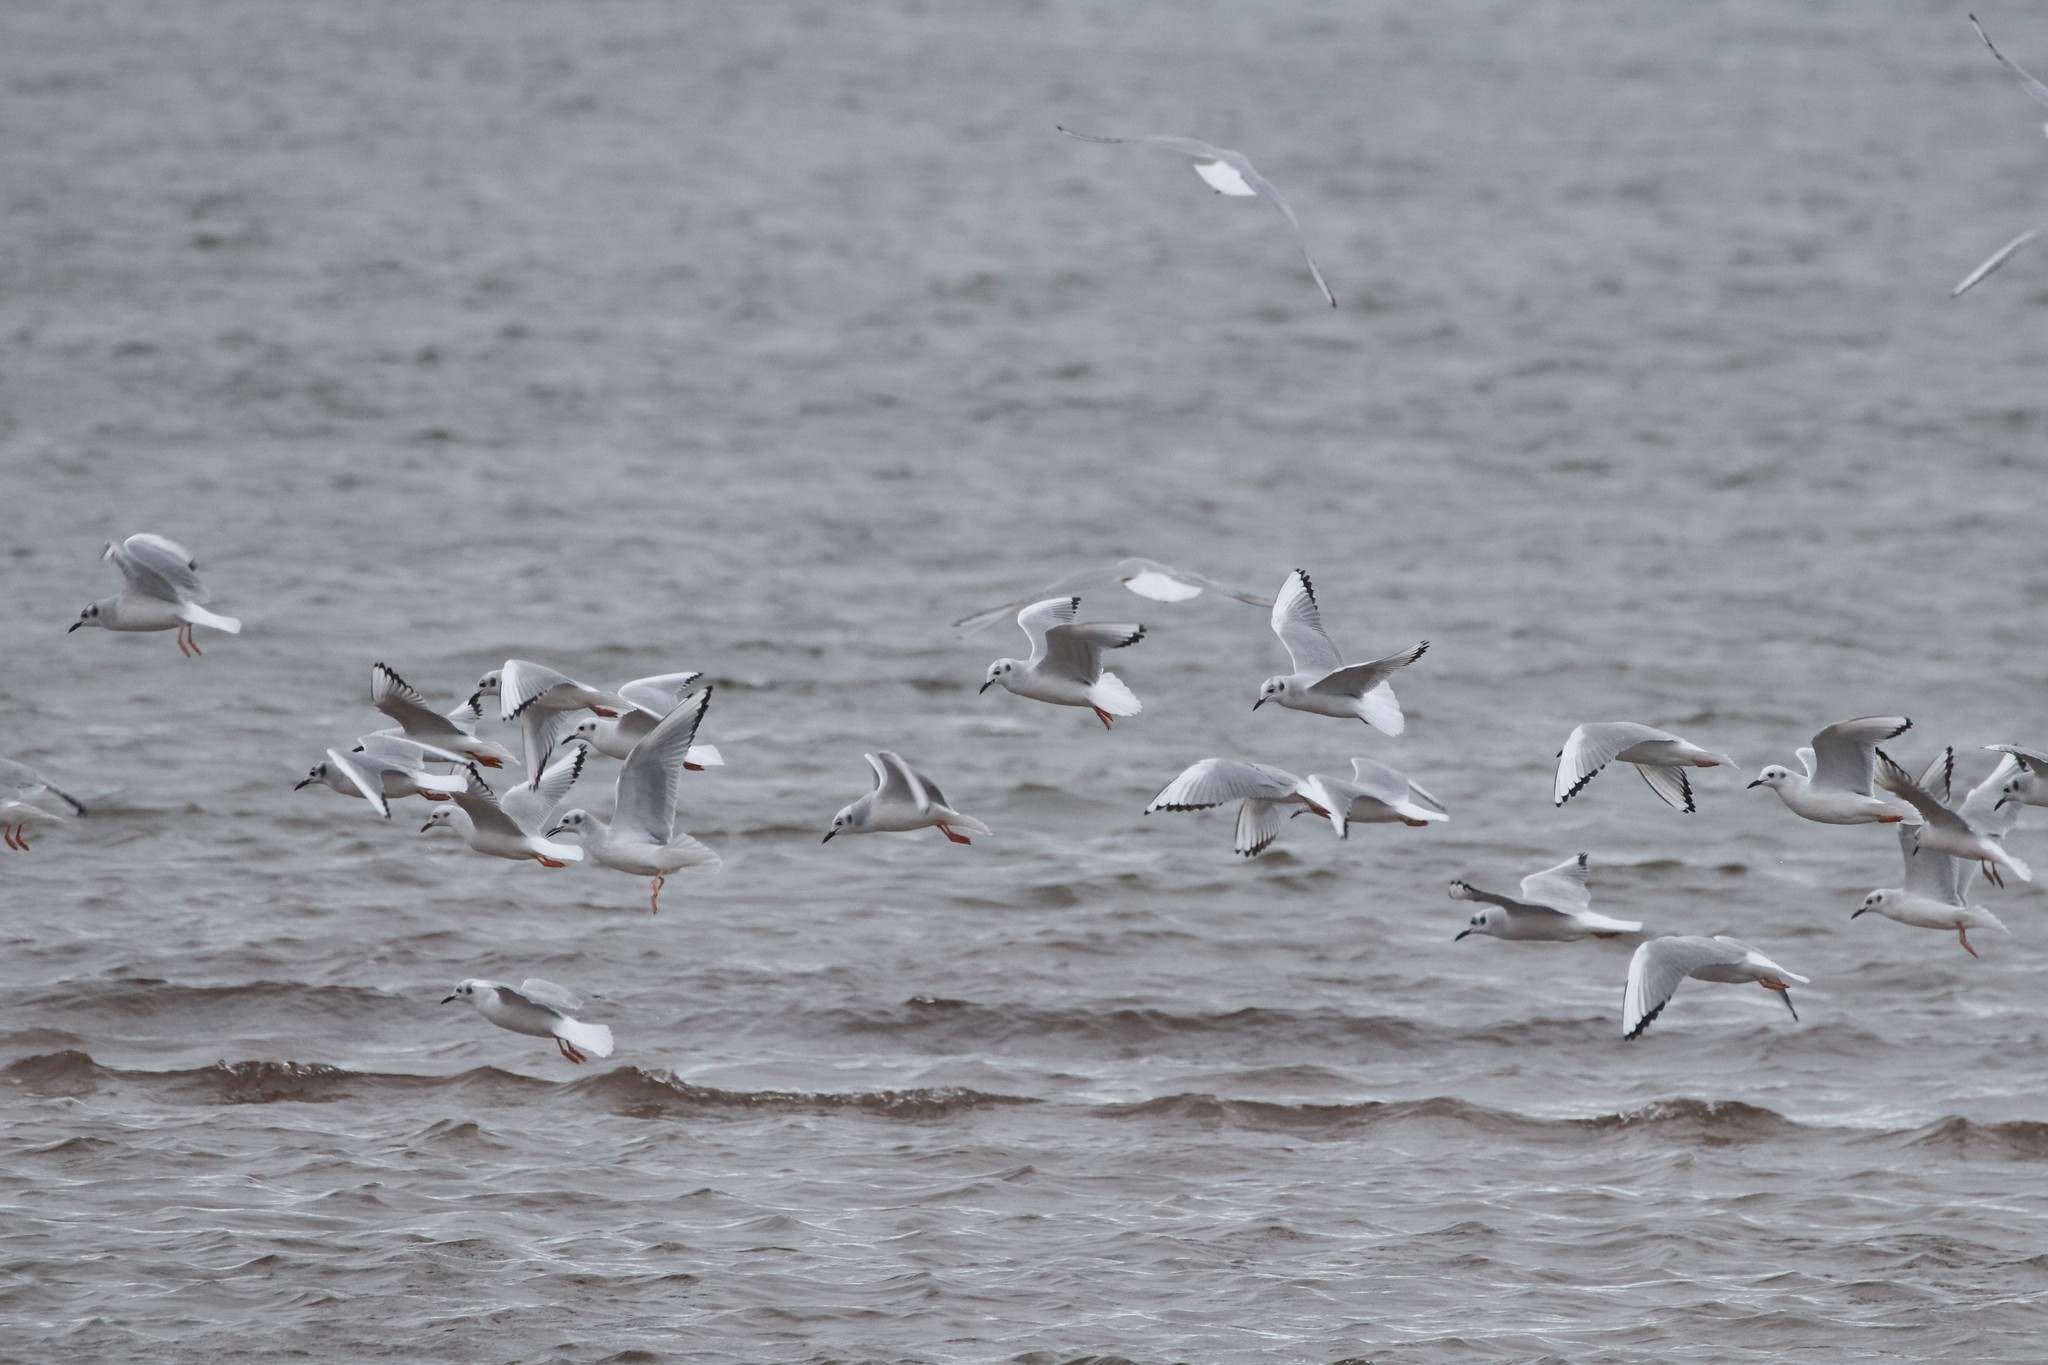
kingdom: Animalia
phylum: Chordata
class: Aves
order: Charadriiformes
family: Laridae
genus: Chroicocephalus
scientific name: Chroicocephalus philadelphia
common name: Bonaparte's gull
